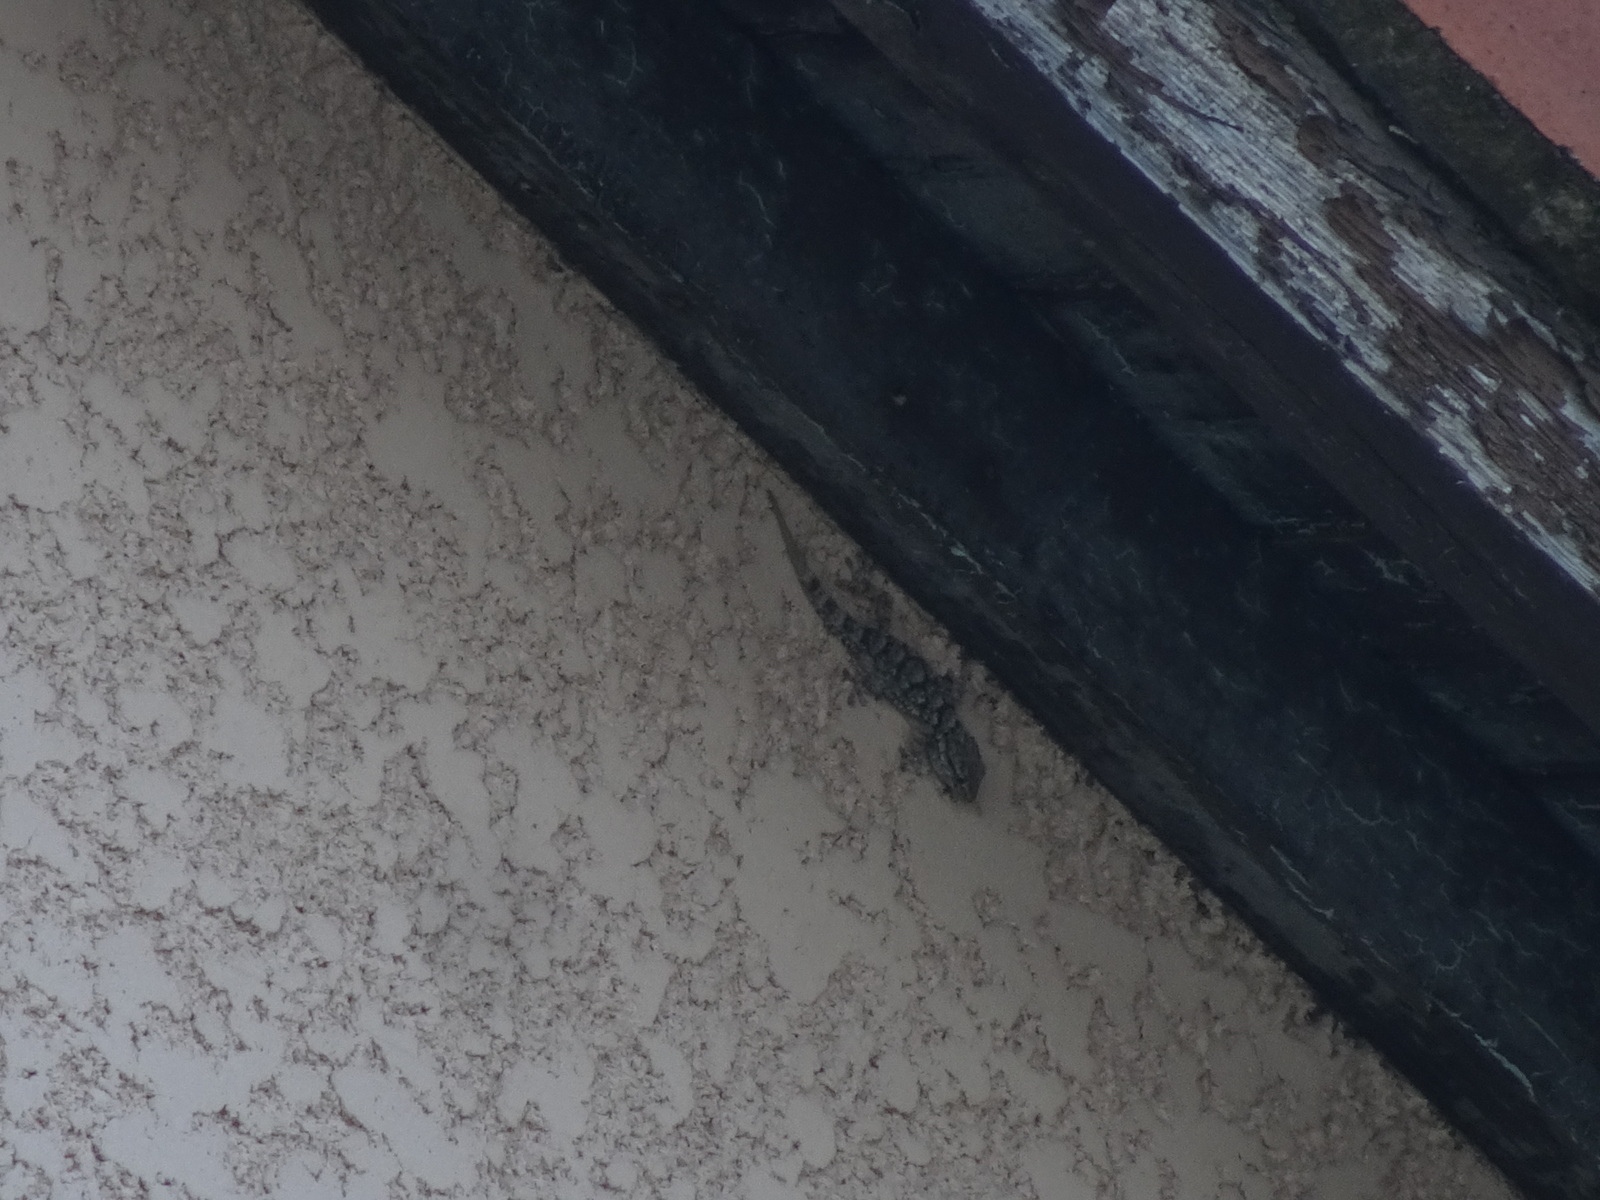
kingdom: Animalia
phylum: Chordata
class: Squamata
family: Phyllodactylidae
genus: Tarentola
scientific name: Tarentola mauritanica
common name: Moorish gecko
